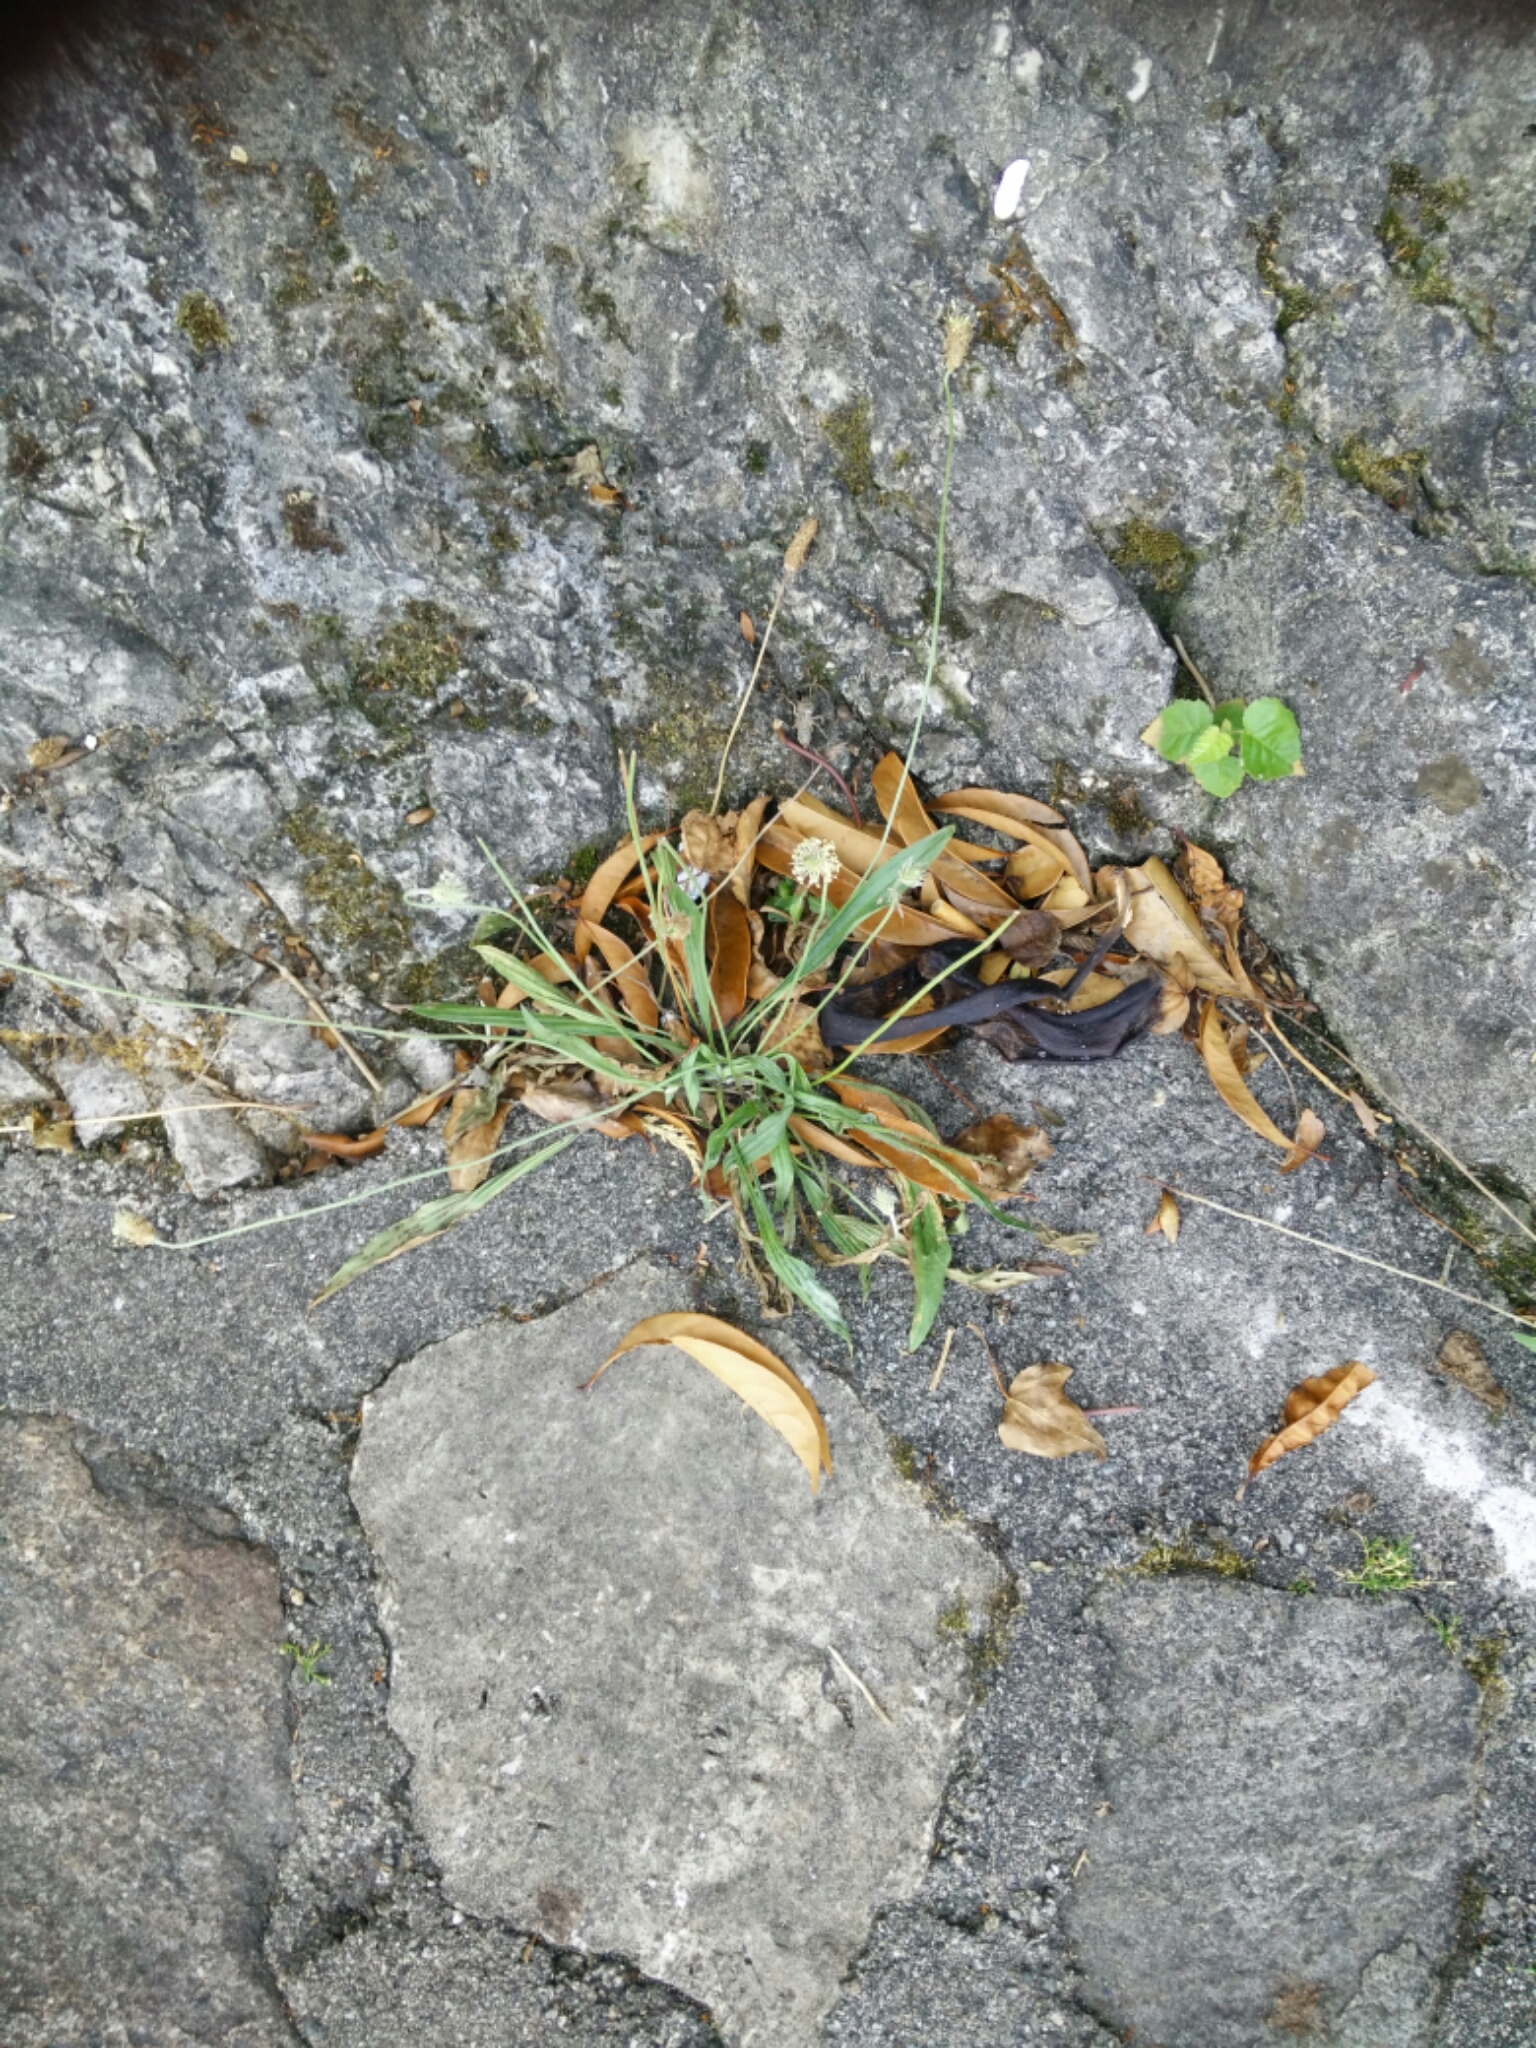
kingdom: Plantae
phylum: Tracheophyta
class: Magnoliopsida
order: Lamiales
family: Plantaginaceae
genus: Plantago
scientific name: Plantago lanceolata
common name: Ribwort plantain
